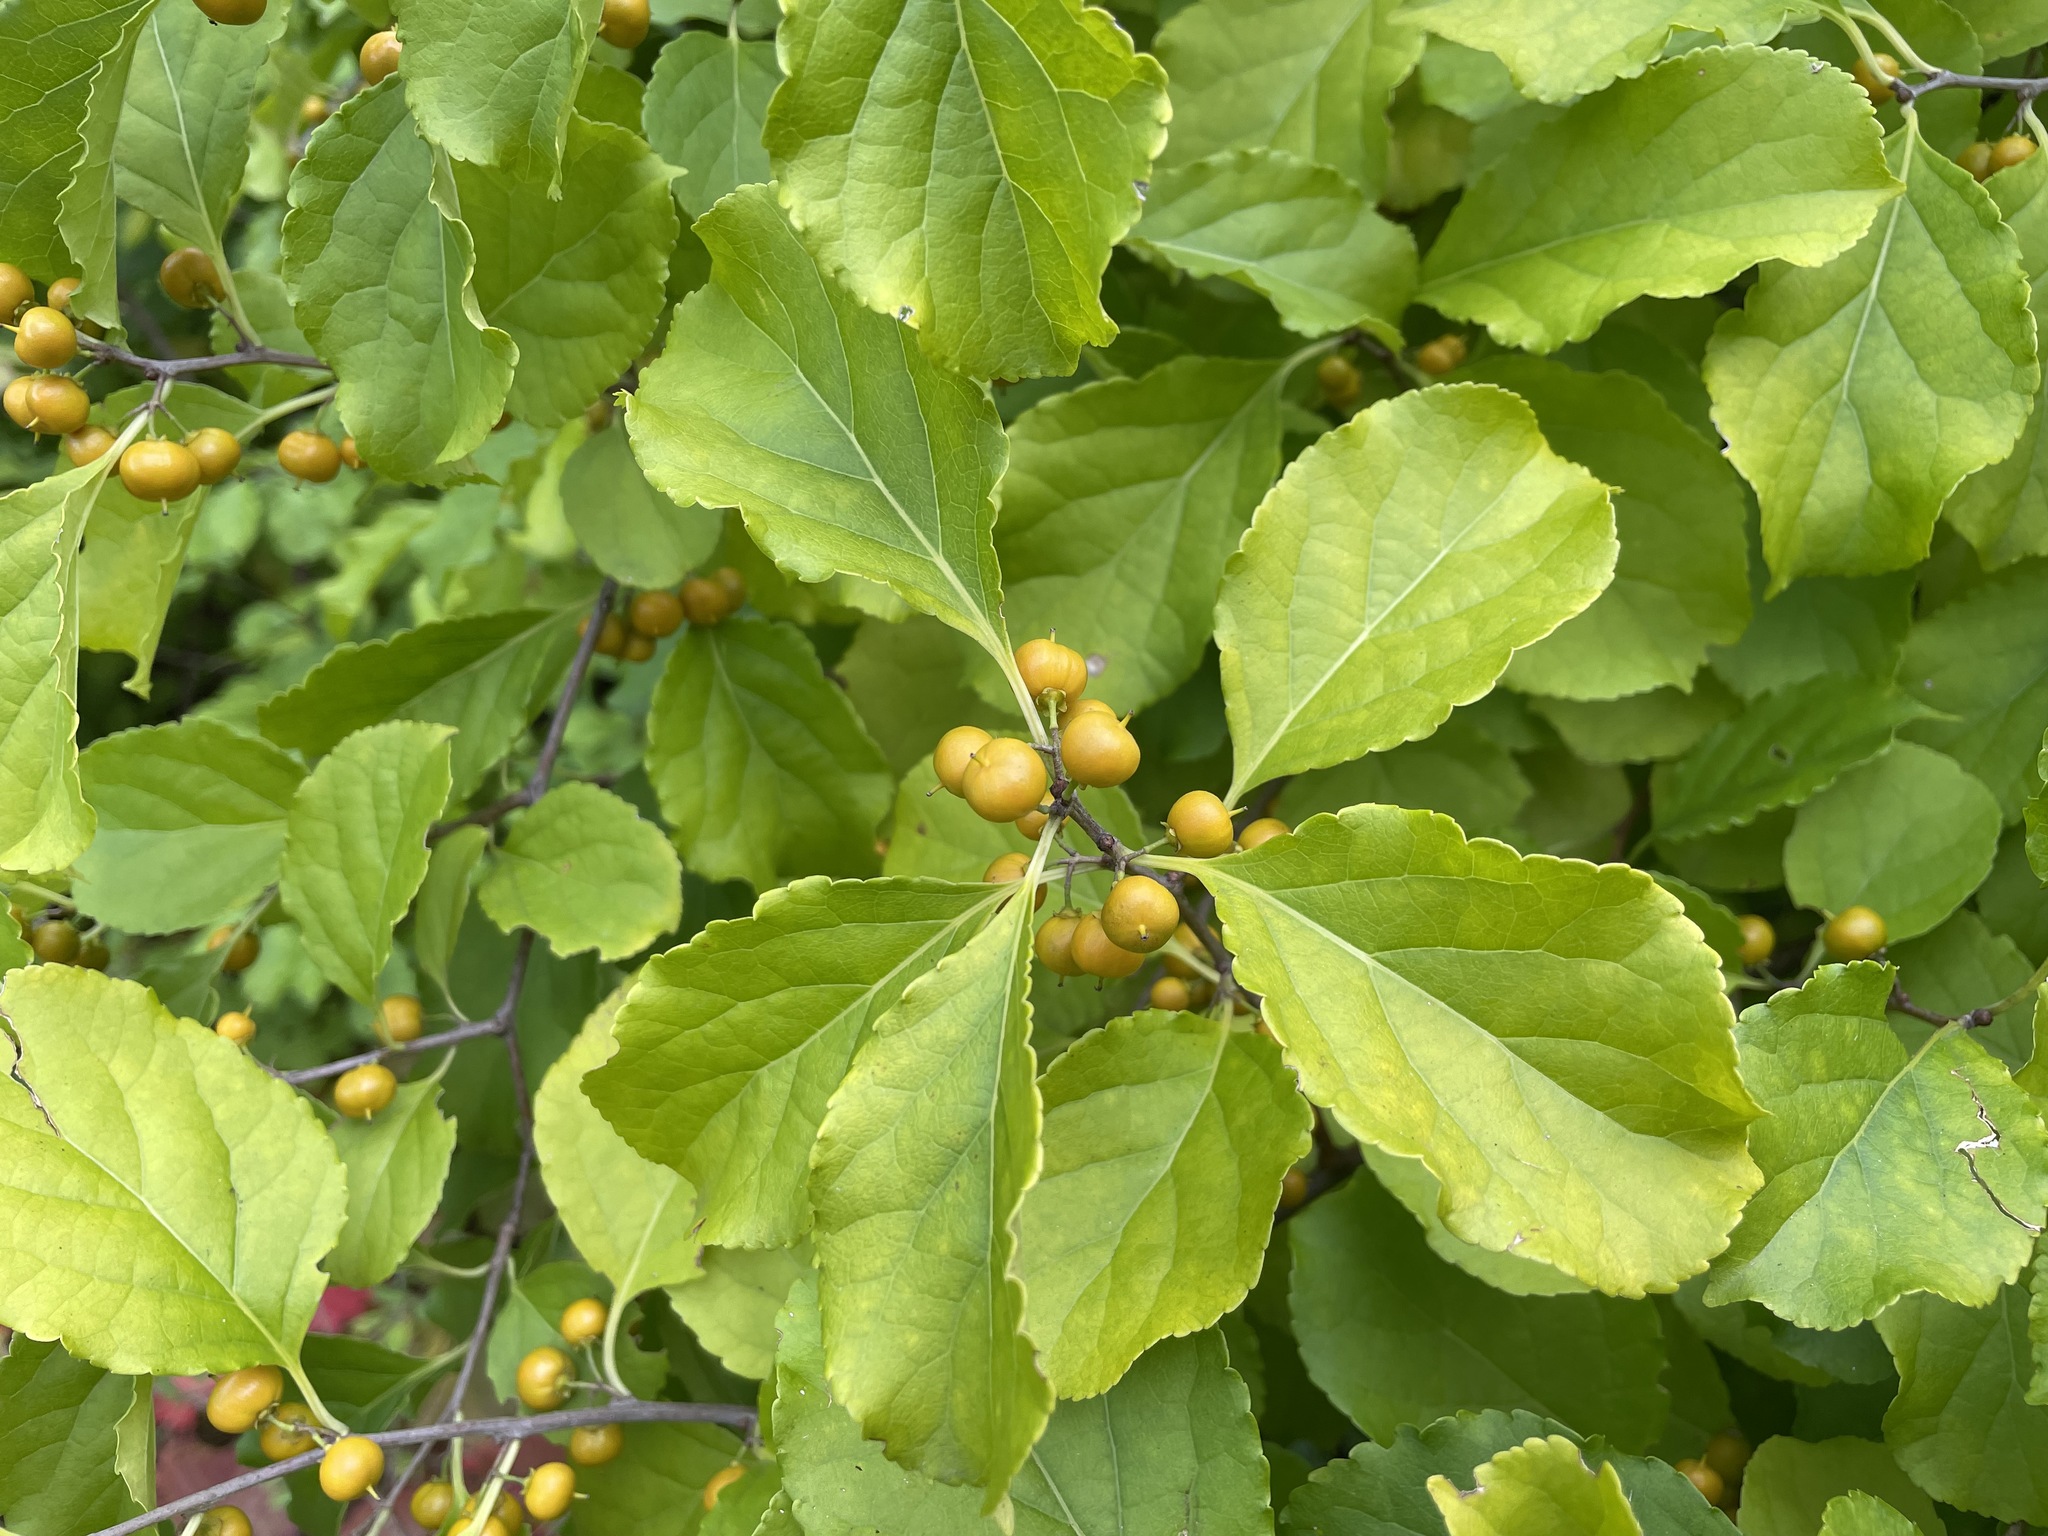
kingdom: Plantae
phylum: Tracheophyta
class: Magnoliopsida
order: Celastrales
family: Celastraceae
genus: Celastrus
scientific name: Celastrus orbiculatus
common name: Oriental bittersweet
